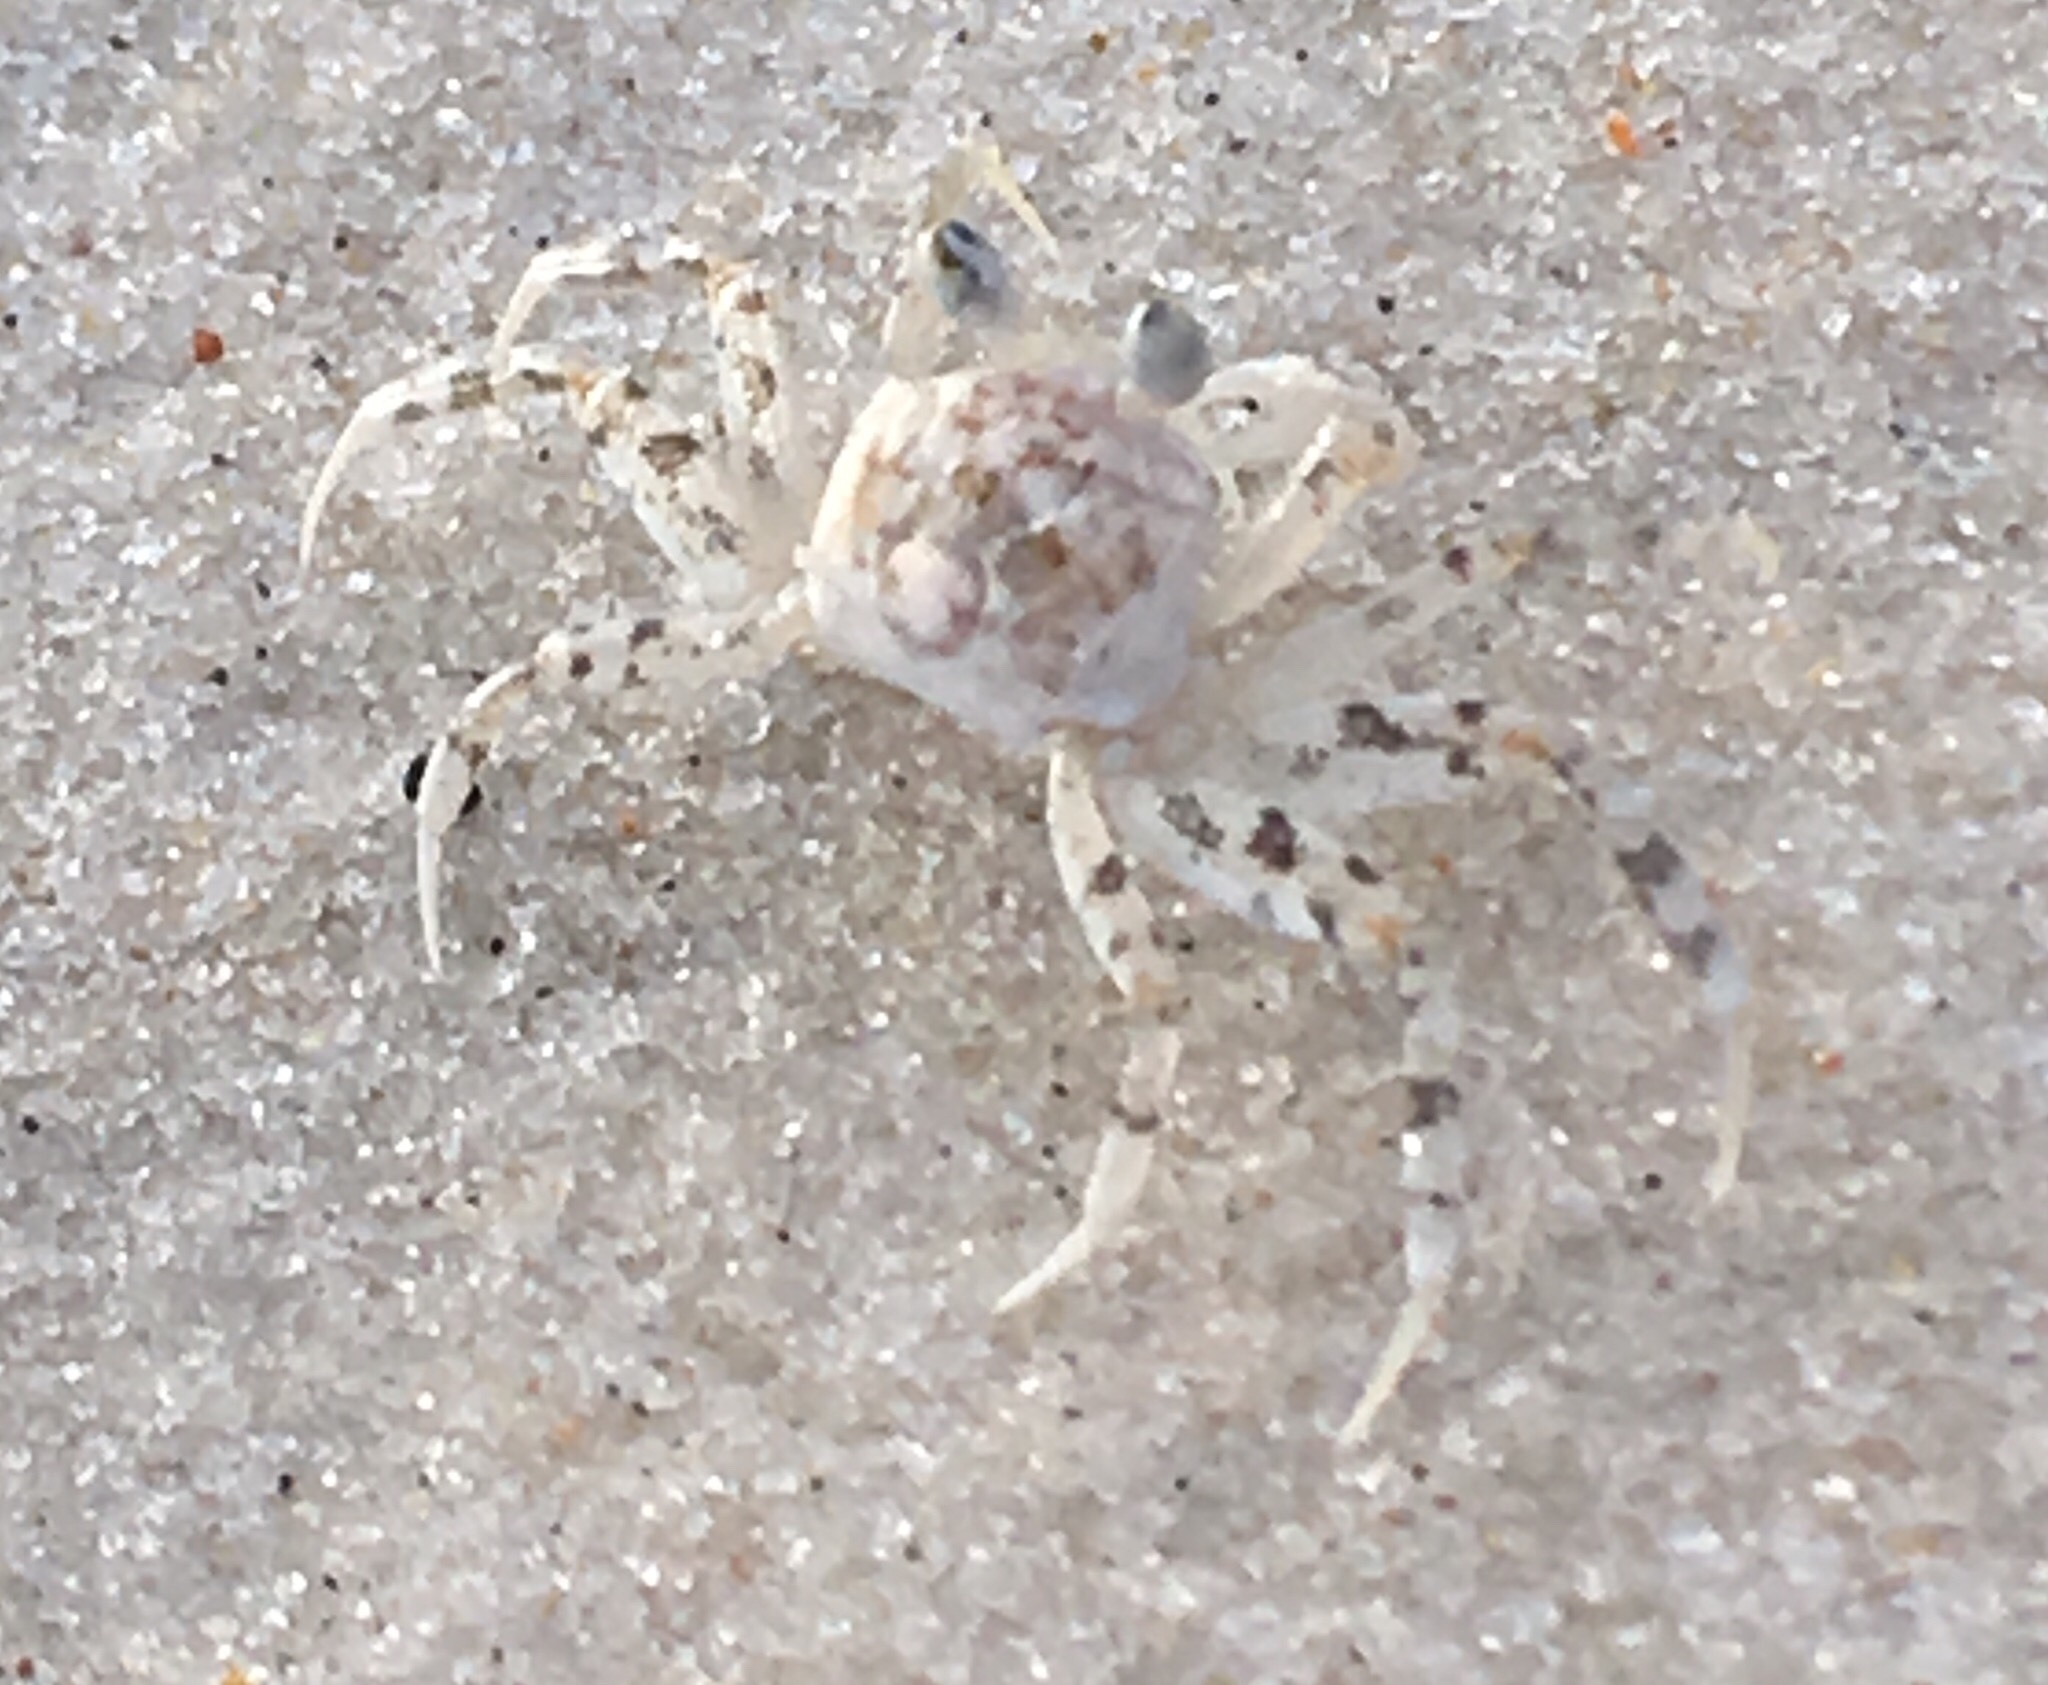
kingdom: Animalia
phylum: Arthropoda
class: Malacostraca
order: Decapoda
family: Ocypodidae
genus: Ocypode
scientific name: Ocypode quadrata
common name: Ghost crab
